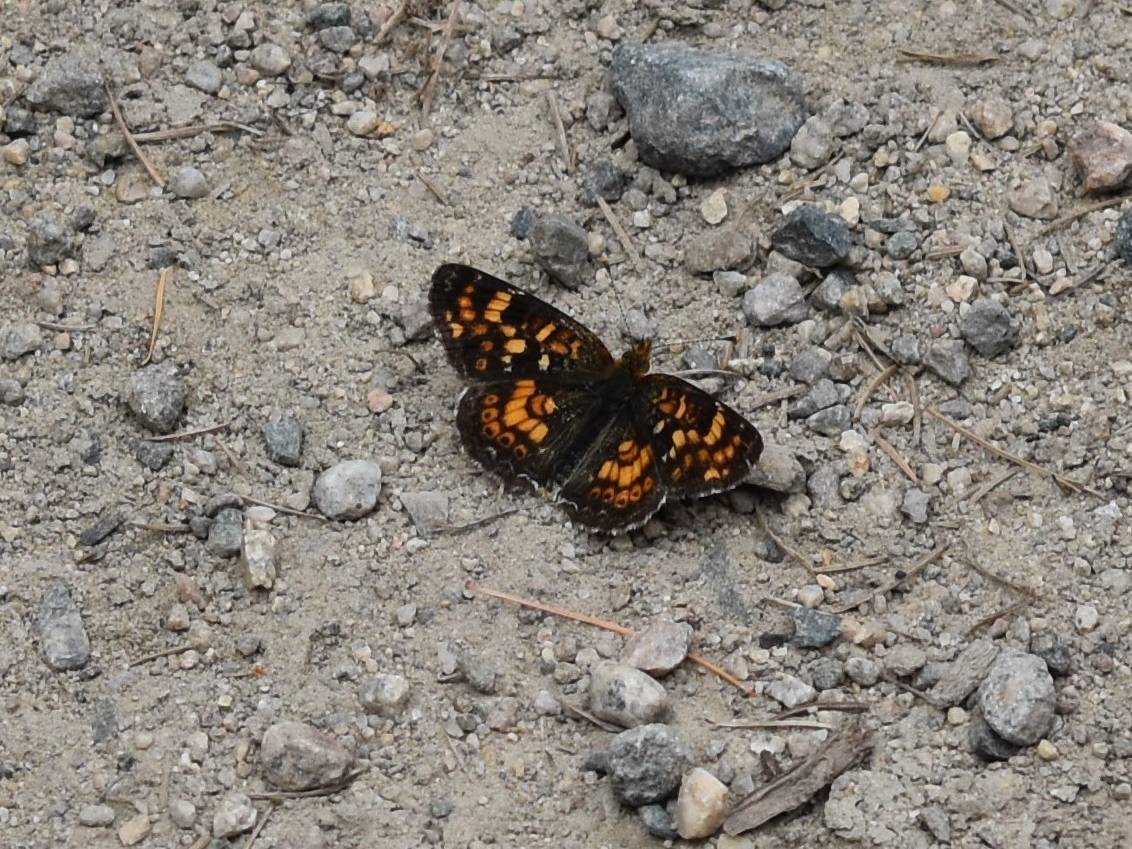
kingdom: Animalia
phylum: Arthropoda
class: Insecta
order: Lepidoptera
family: Nymphalidae
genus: Phyciodes
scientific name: Phyciodes tharos
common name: Pearl crescent
